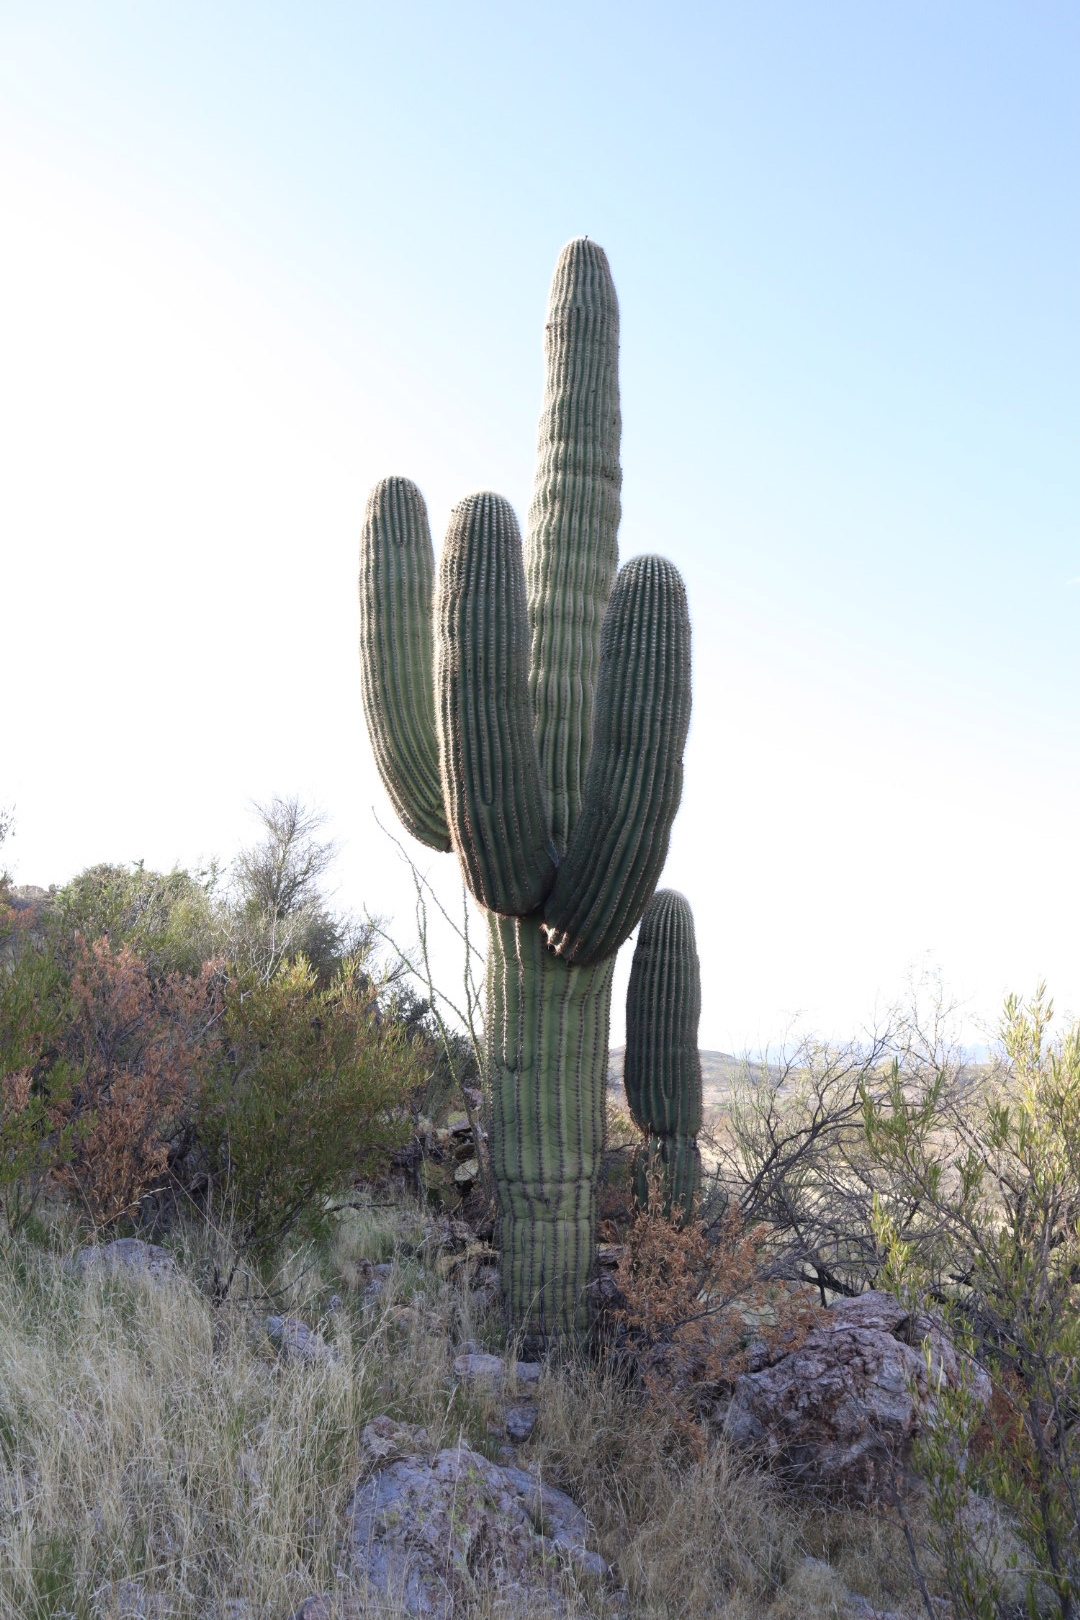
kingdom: Plantae
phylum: Tracheophyta
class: Magnoliopsida
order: Caryophyllales
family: Cactaceae
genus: Carnegiea
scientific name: Carnegiea gigantea
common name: Saguaro
